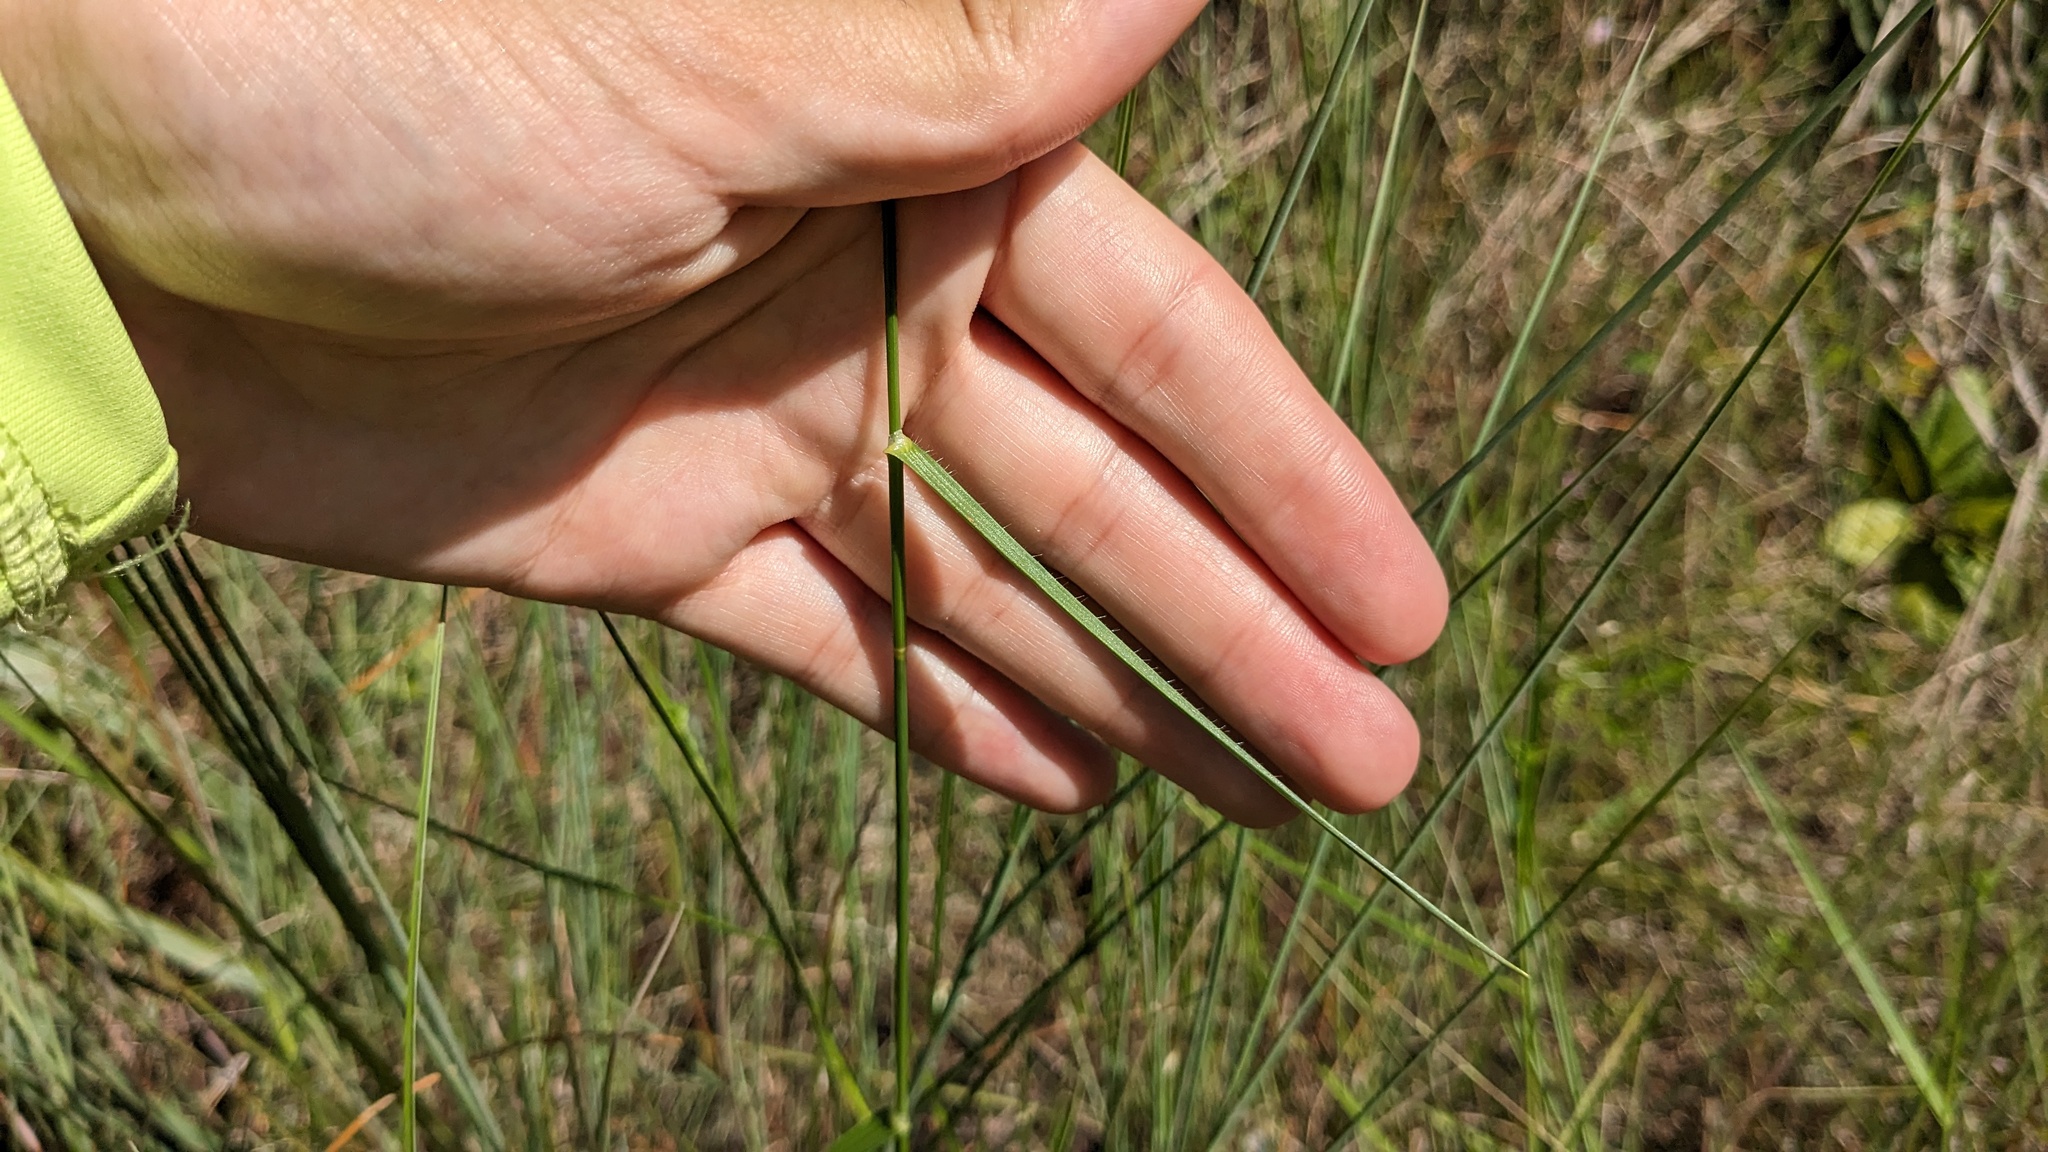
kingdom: Plantae
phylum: Tracheophyta
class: Liliopsida
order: Poales
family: Cyperaceae
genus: Fuirena
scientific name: Fuirena breviseta
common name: Saltmarsh umbrella sedge
